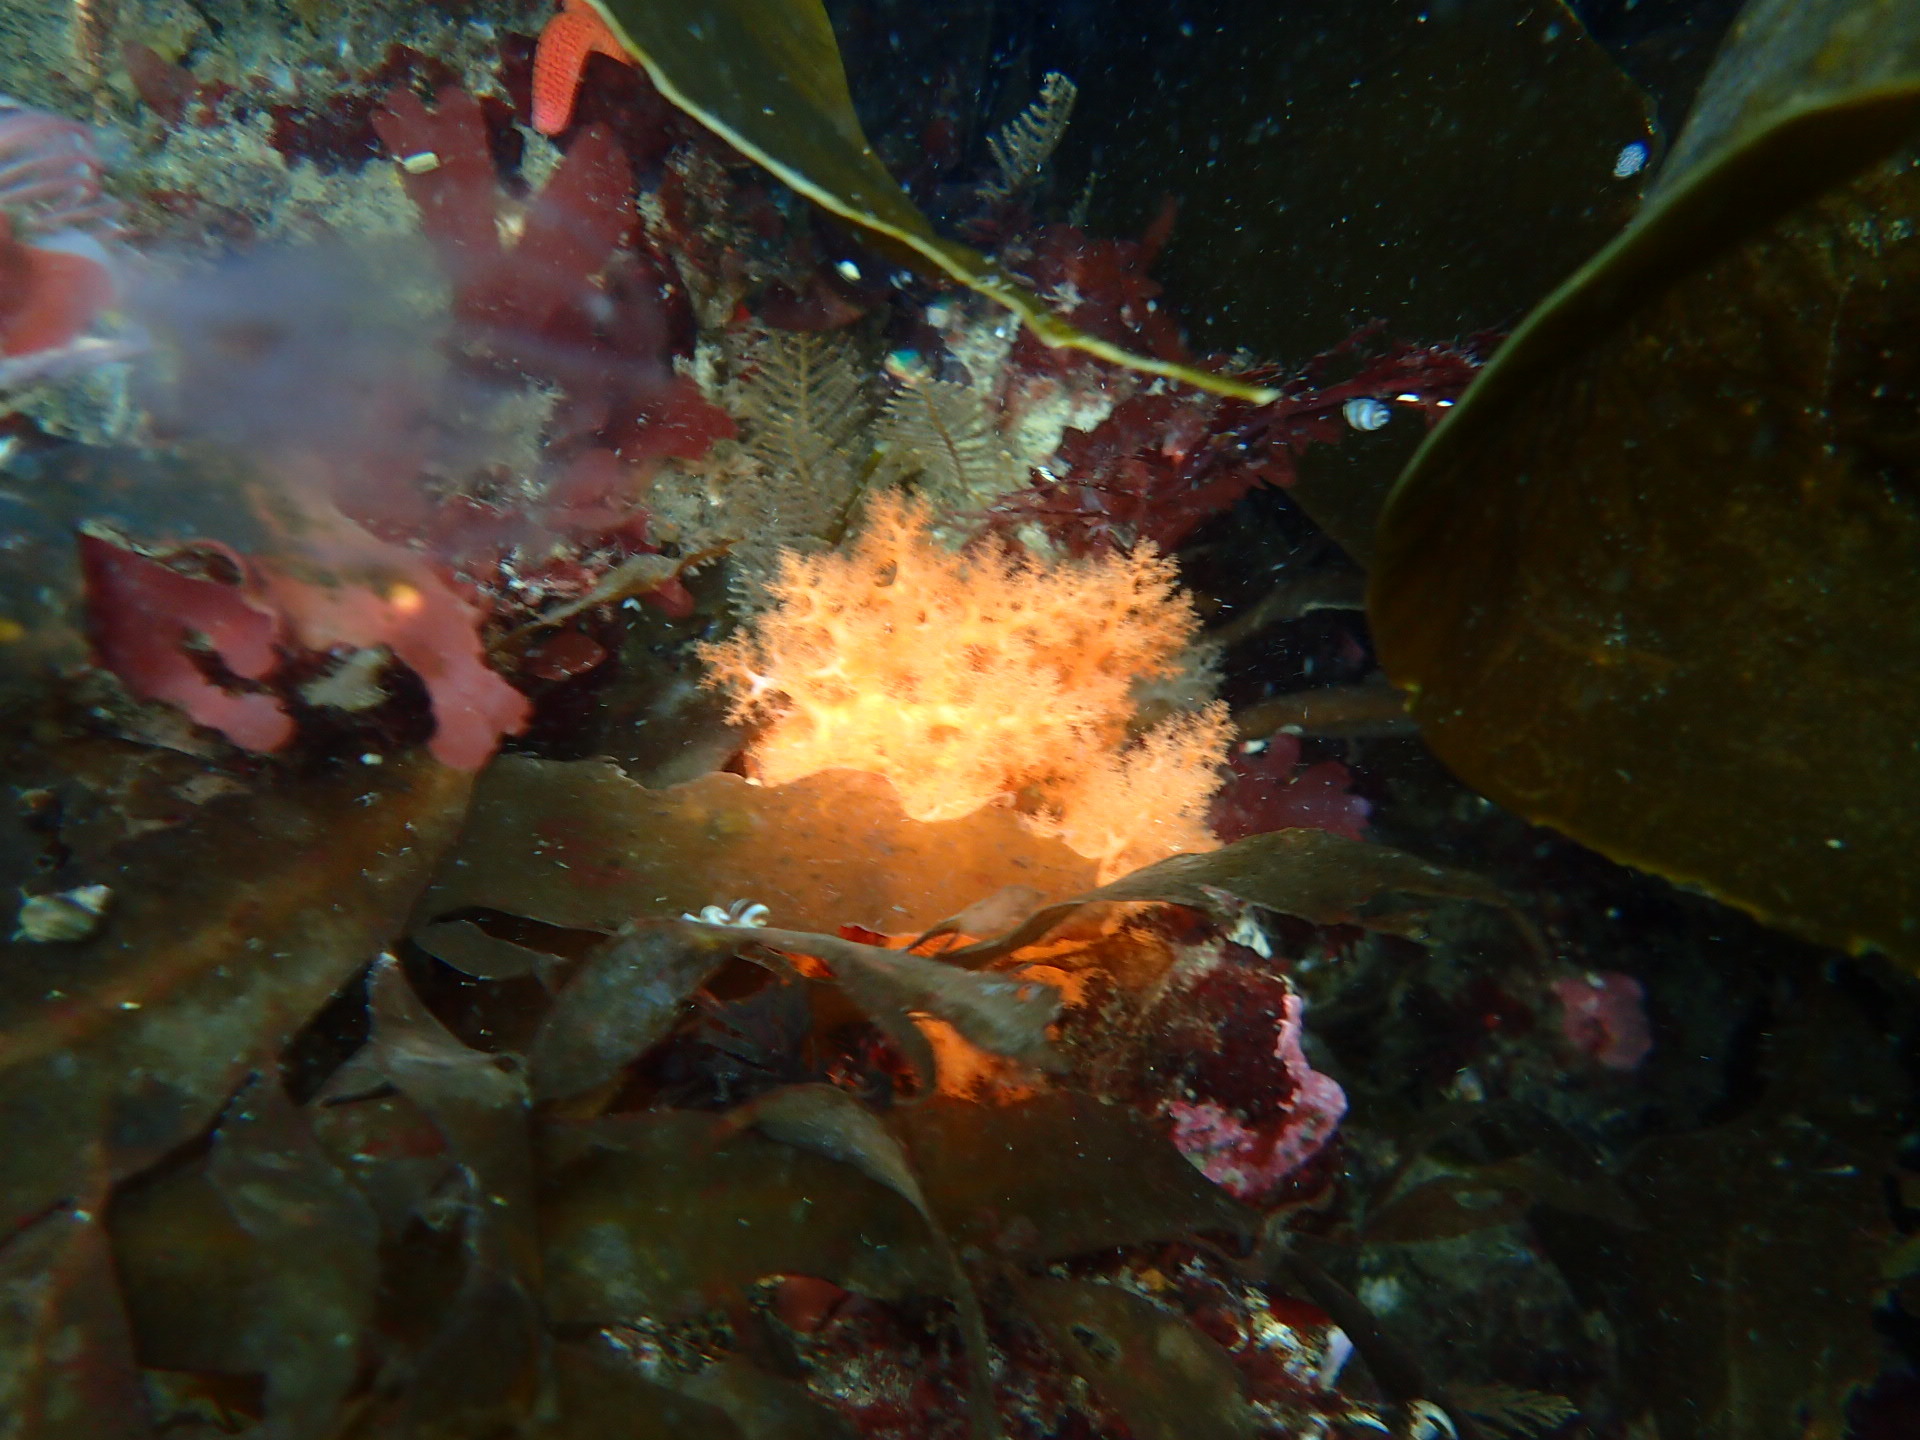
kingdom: Animalia
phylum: Echinodermata
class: Holothuroidea
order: Dendrochirotida
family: Cucumariidae
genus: Cucumaria
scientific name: Cucumaria miniata
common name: Orange sea cucumber
